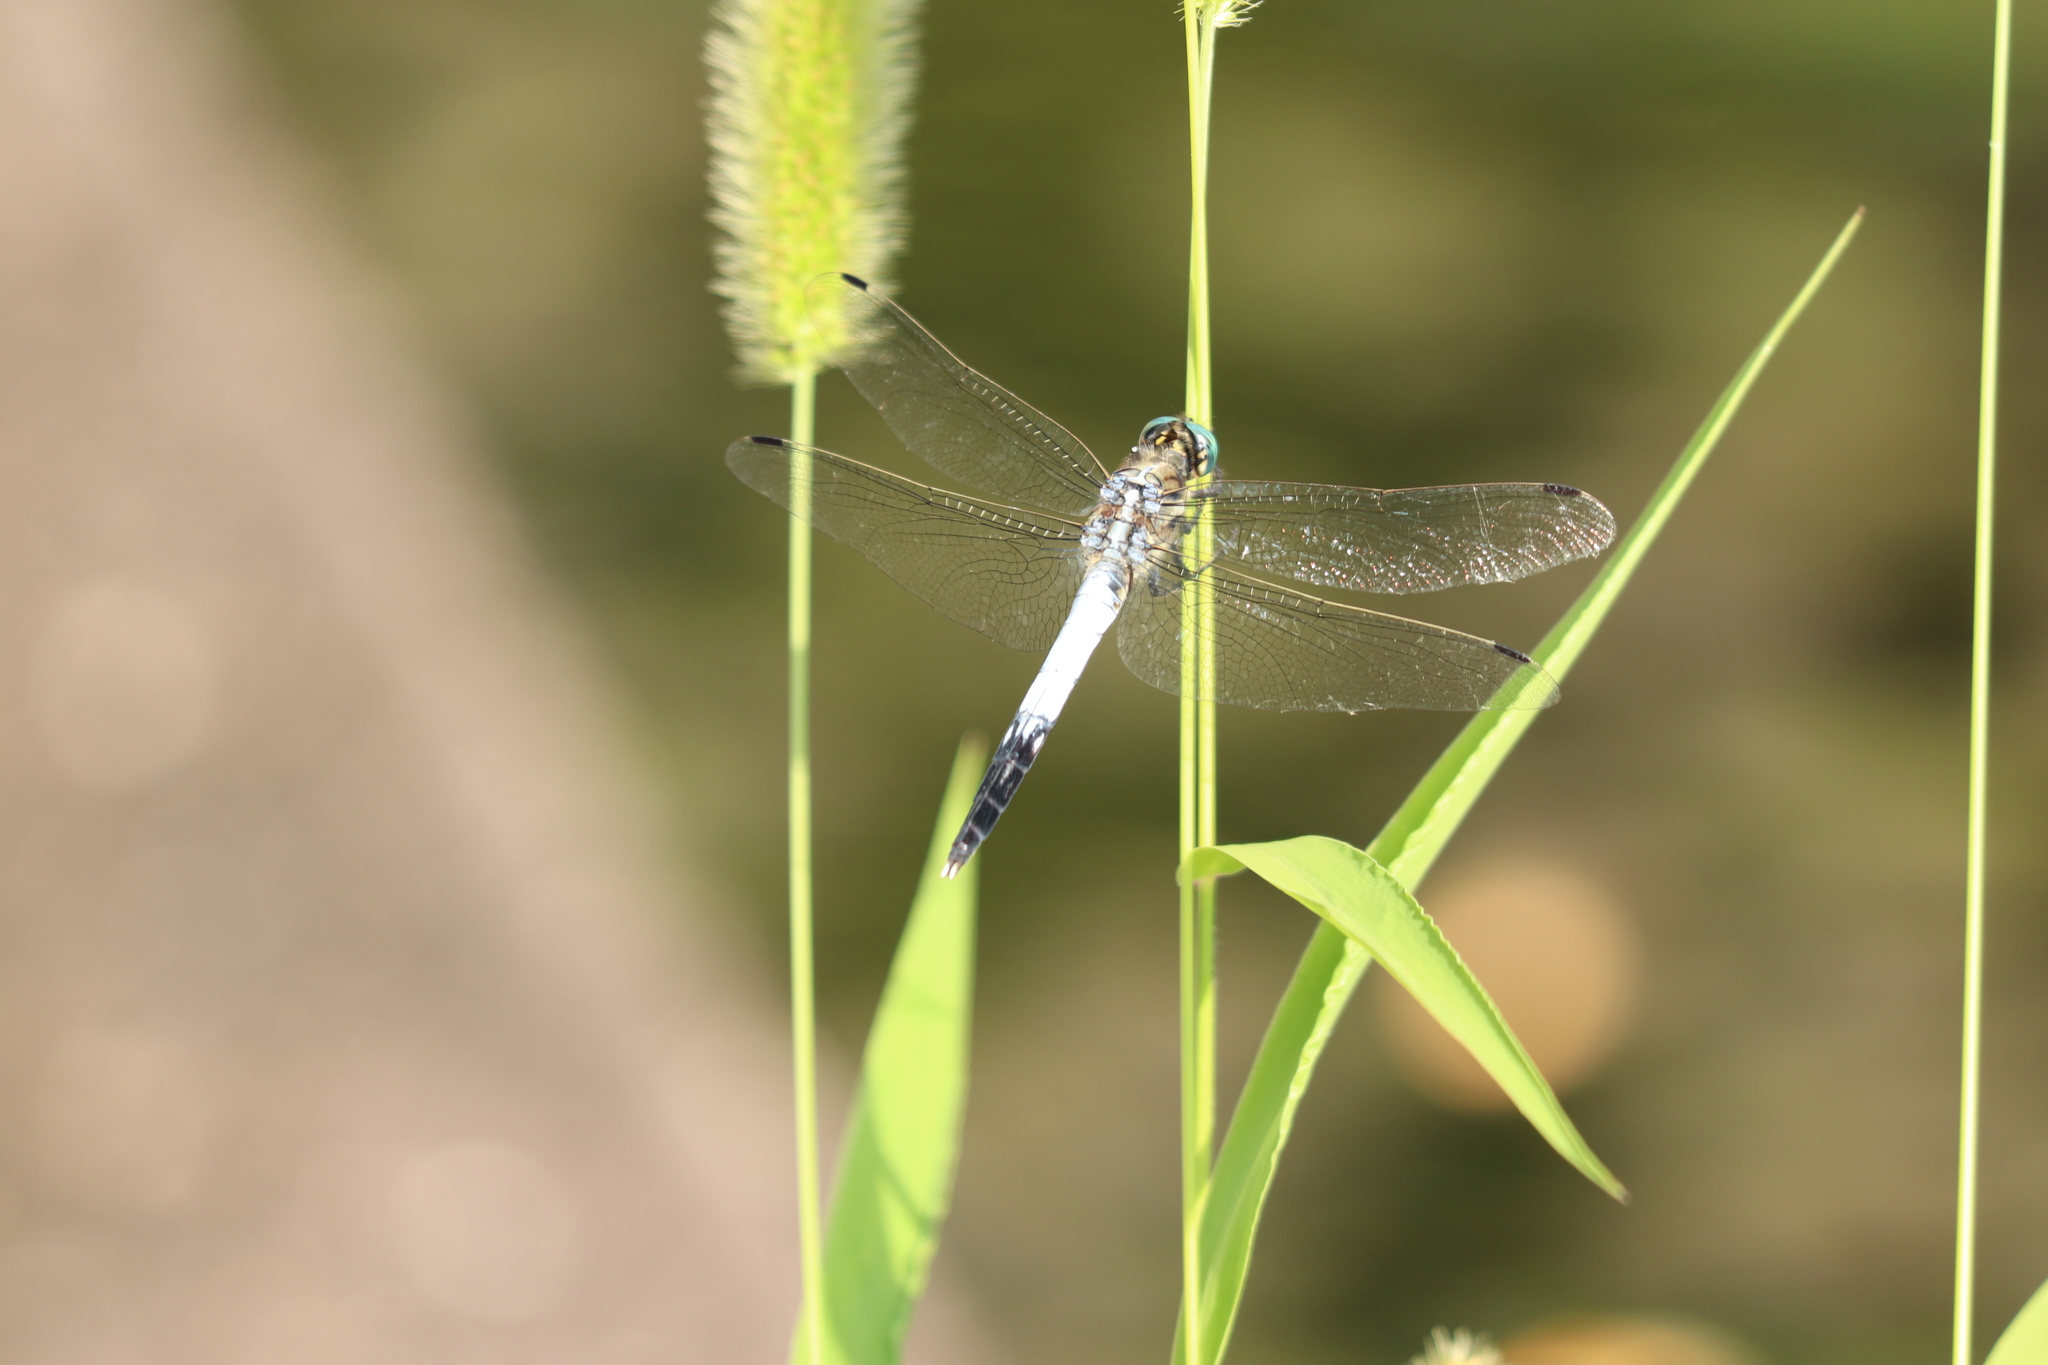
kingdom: Animalia
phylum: Arthropoda
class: Insecta
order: Odonata
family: Libellulidae
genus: Orthetrum
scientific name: Orthetrum albistylum
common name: White-tailed skimmer
